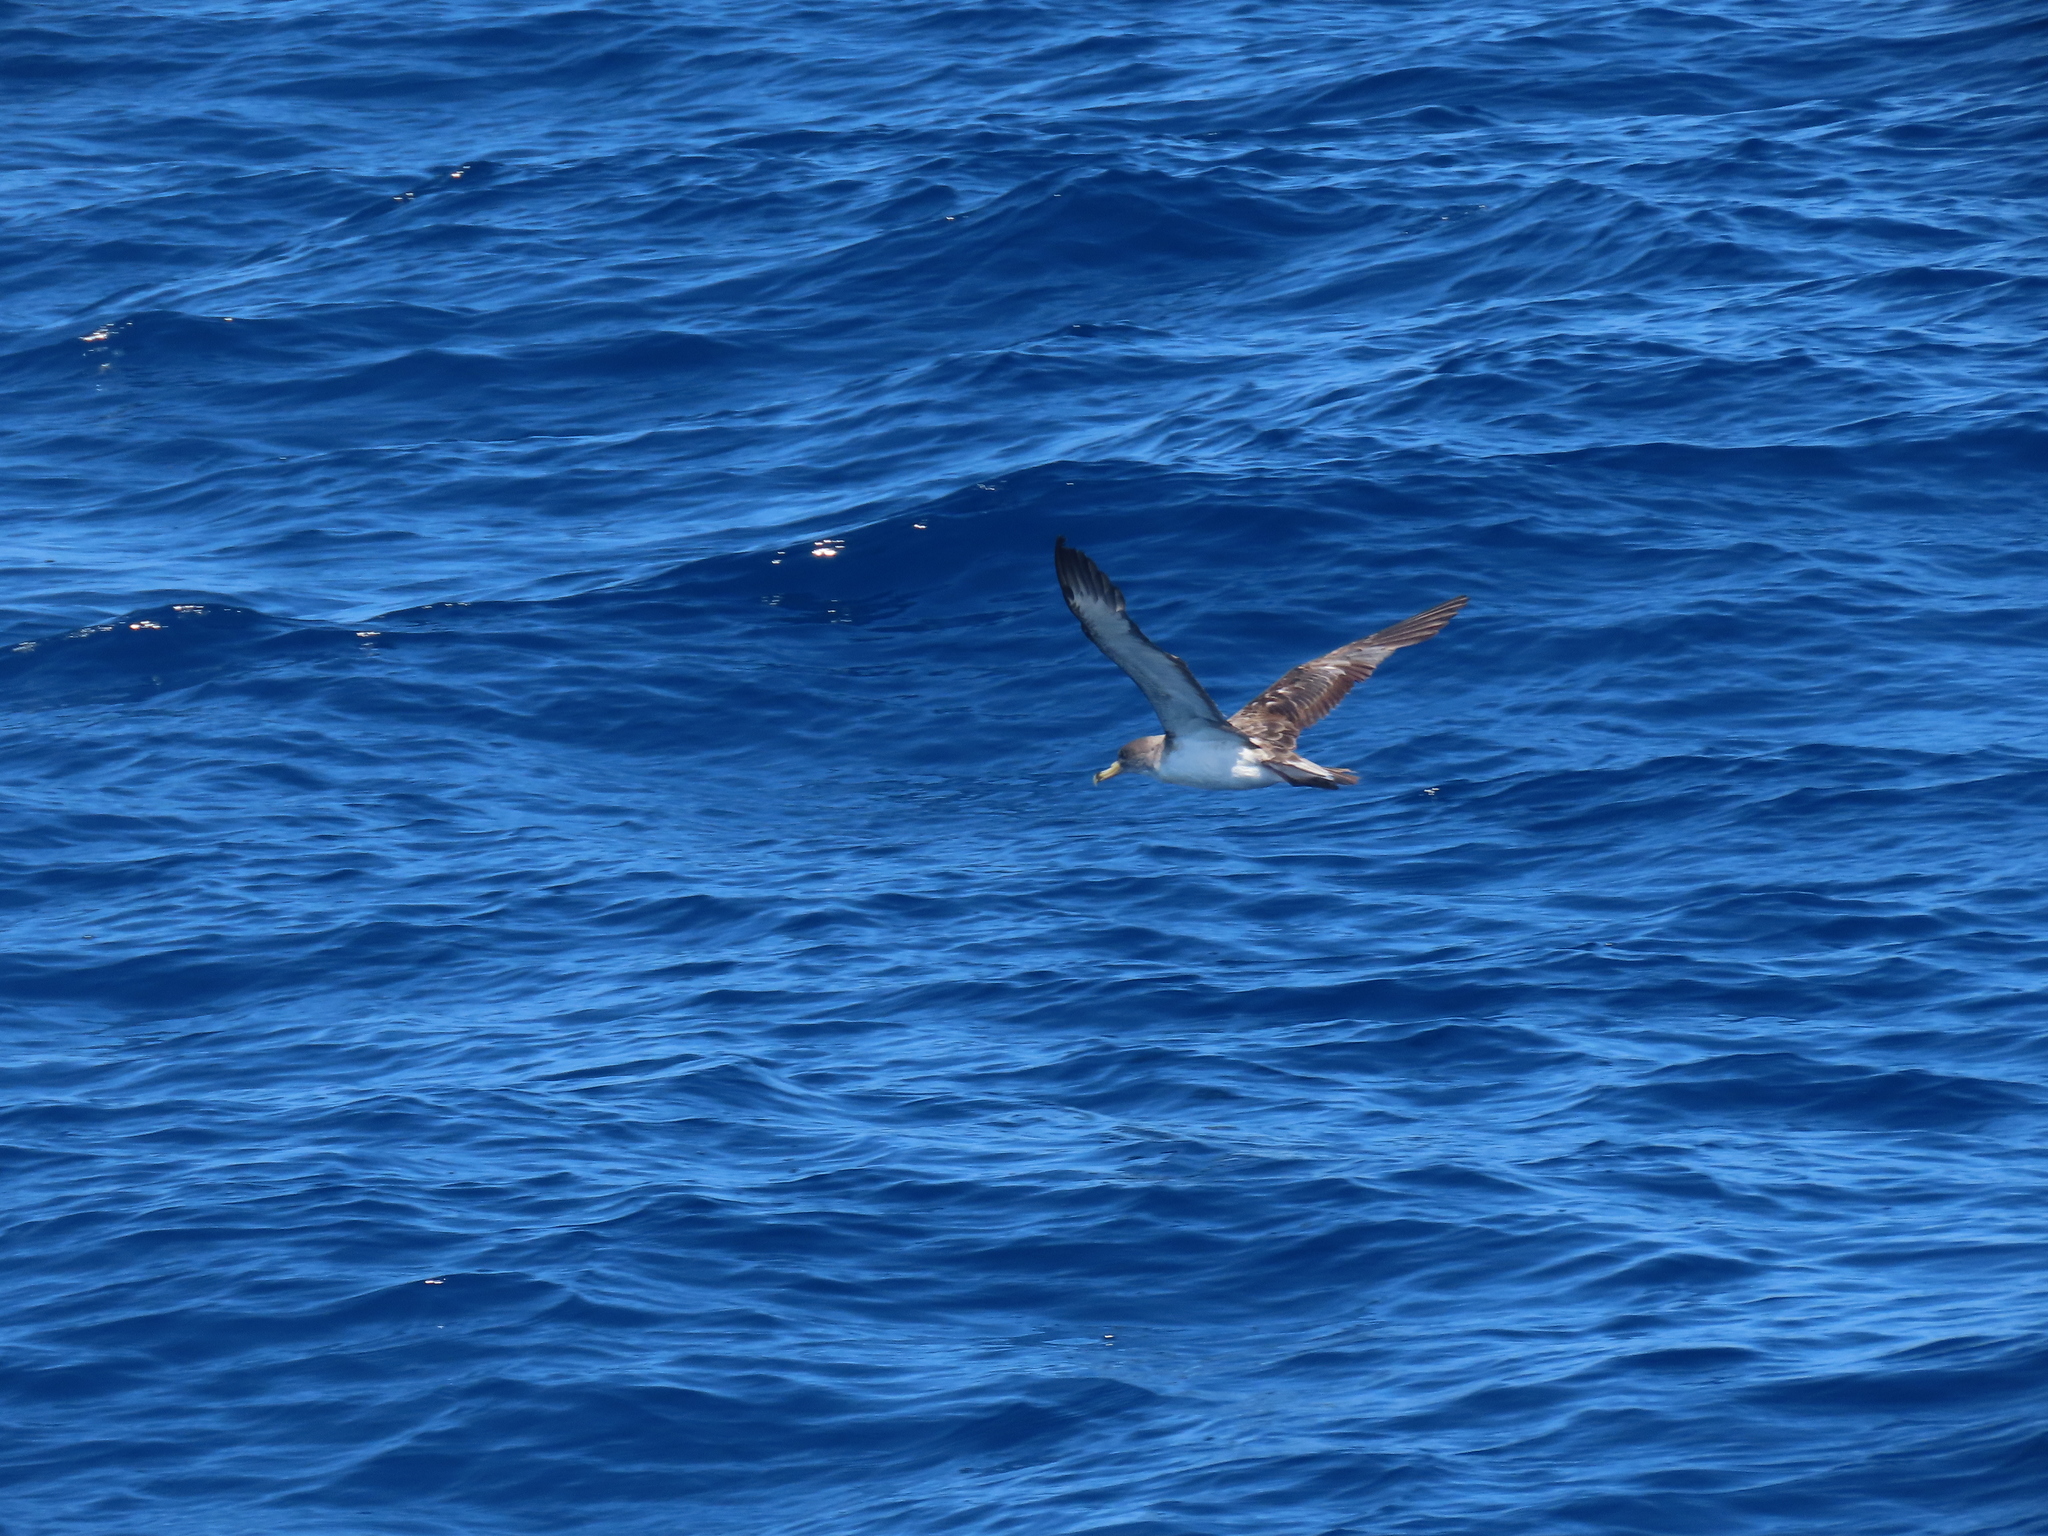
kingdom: Animalia
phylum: Chordata
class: Aves
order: Procellariiformes
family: Procellariidae
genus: Calonectris
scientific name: Calonectris diomedea
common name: Cory's shearwater
